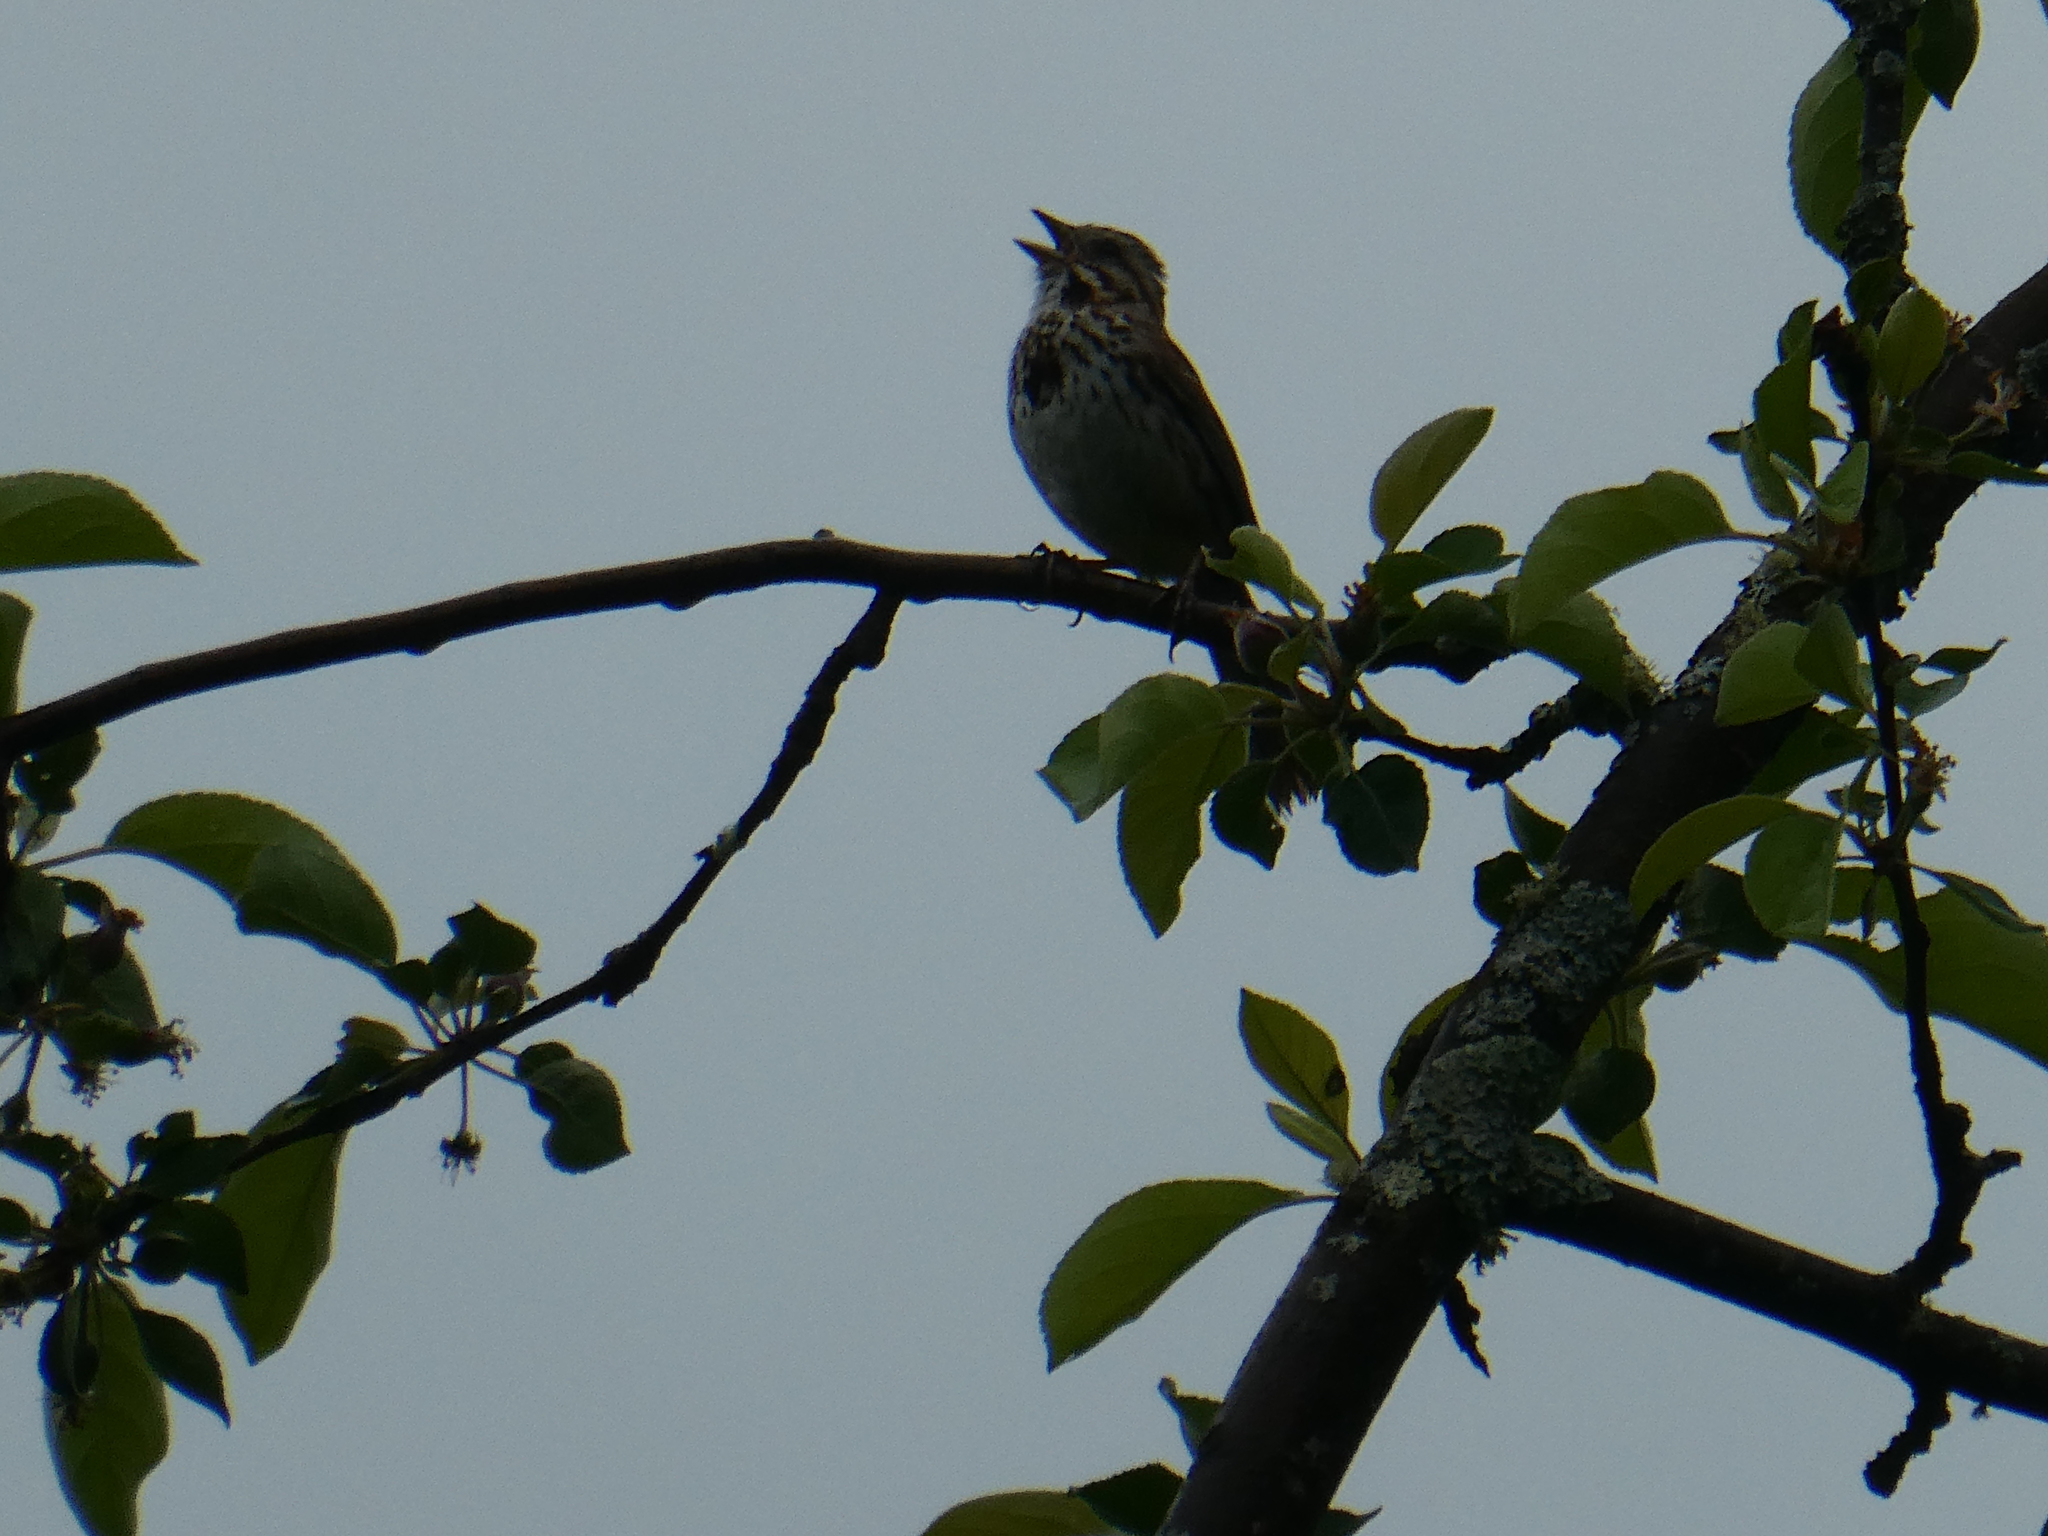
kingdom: Animalia
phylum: Chordata
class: Aves
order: Passeriformes
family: Passerellidae
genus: Melospiza
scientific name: Melospiza melodia
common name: Song sparrow
